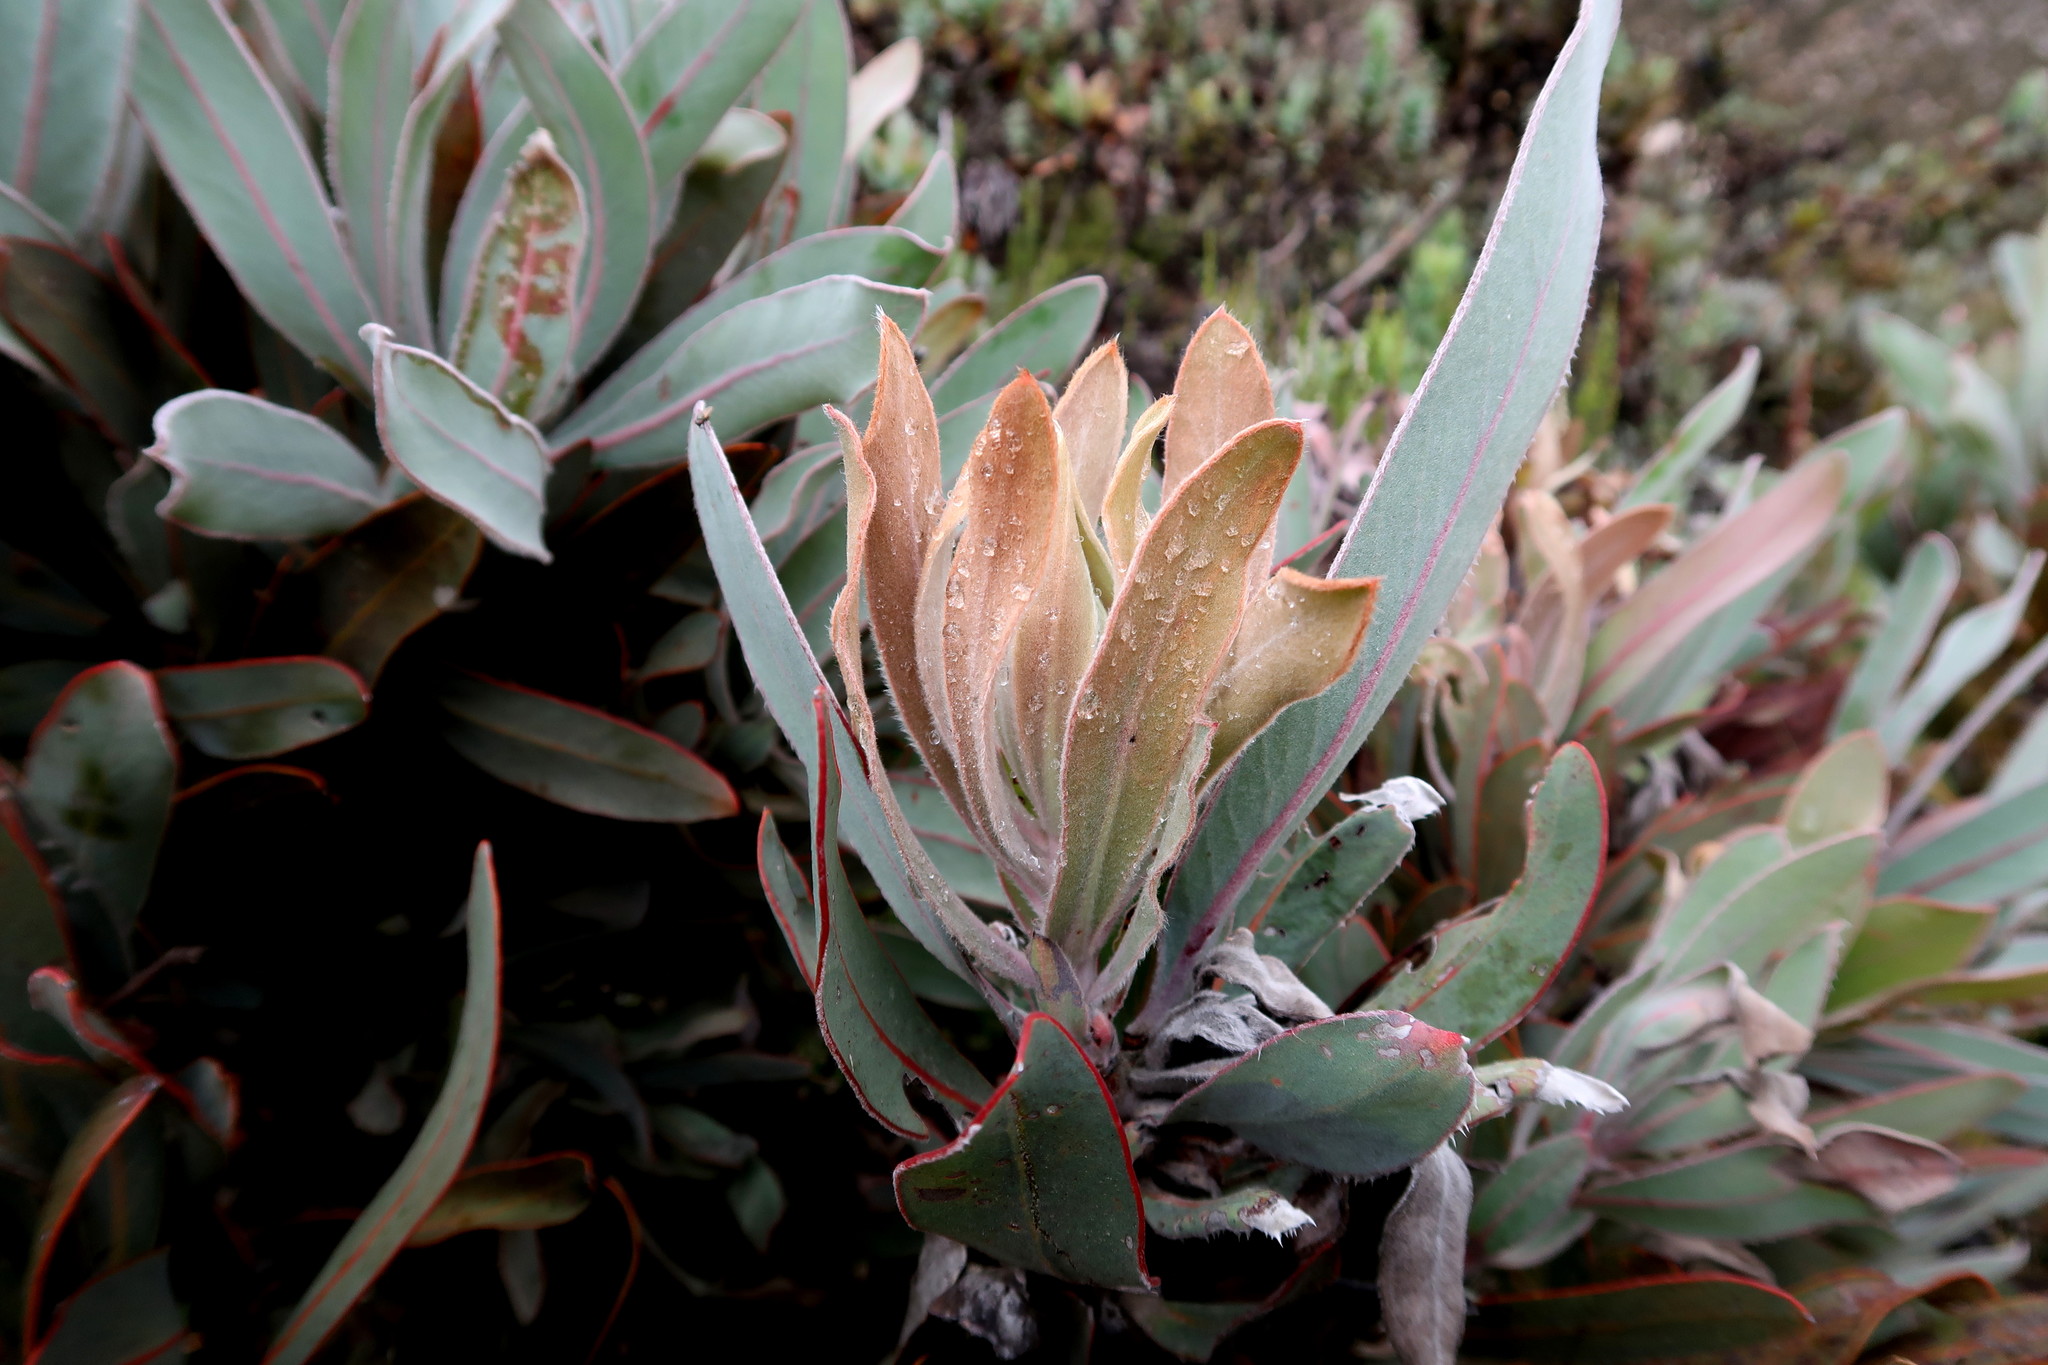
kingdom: Plantae
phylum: Tracheophyta
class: Magnoliopsida
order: Proteales
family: Proteaceae
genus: Protea
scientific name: Protea lorifolia
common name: Strap-leaved protea
